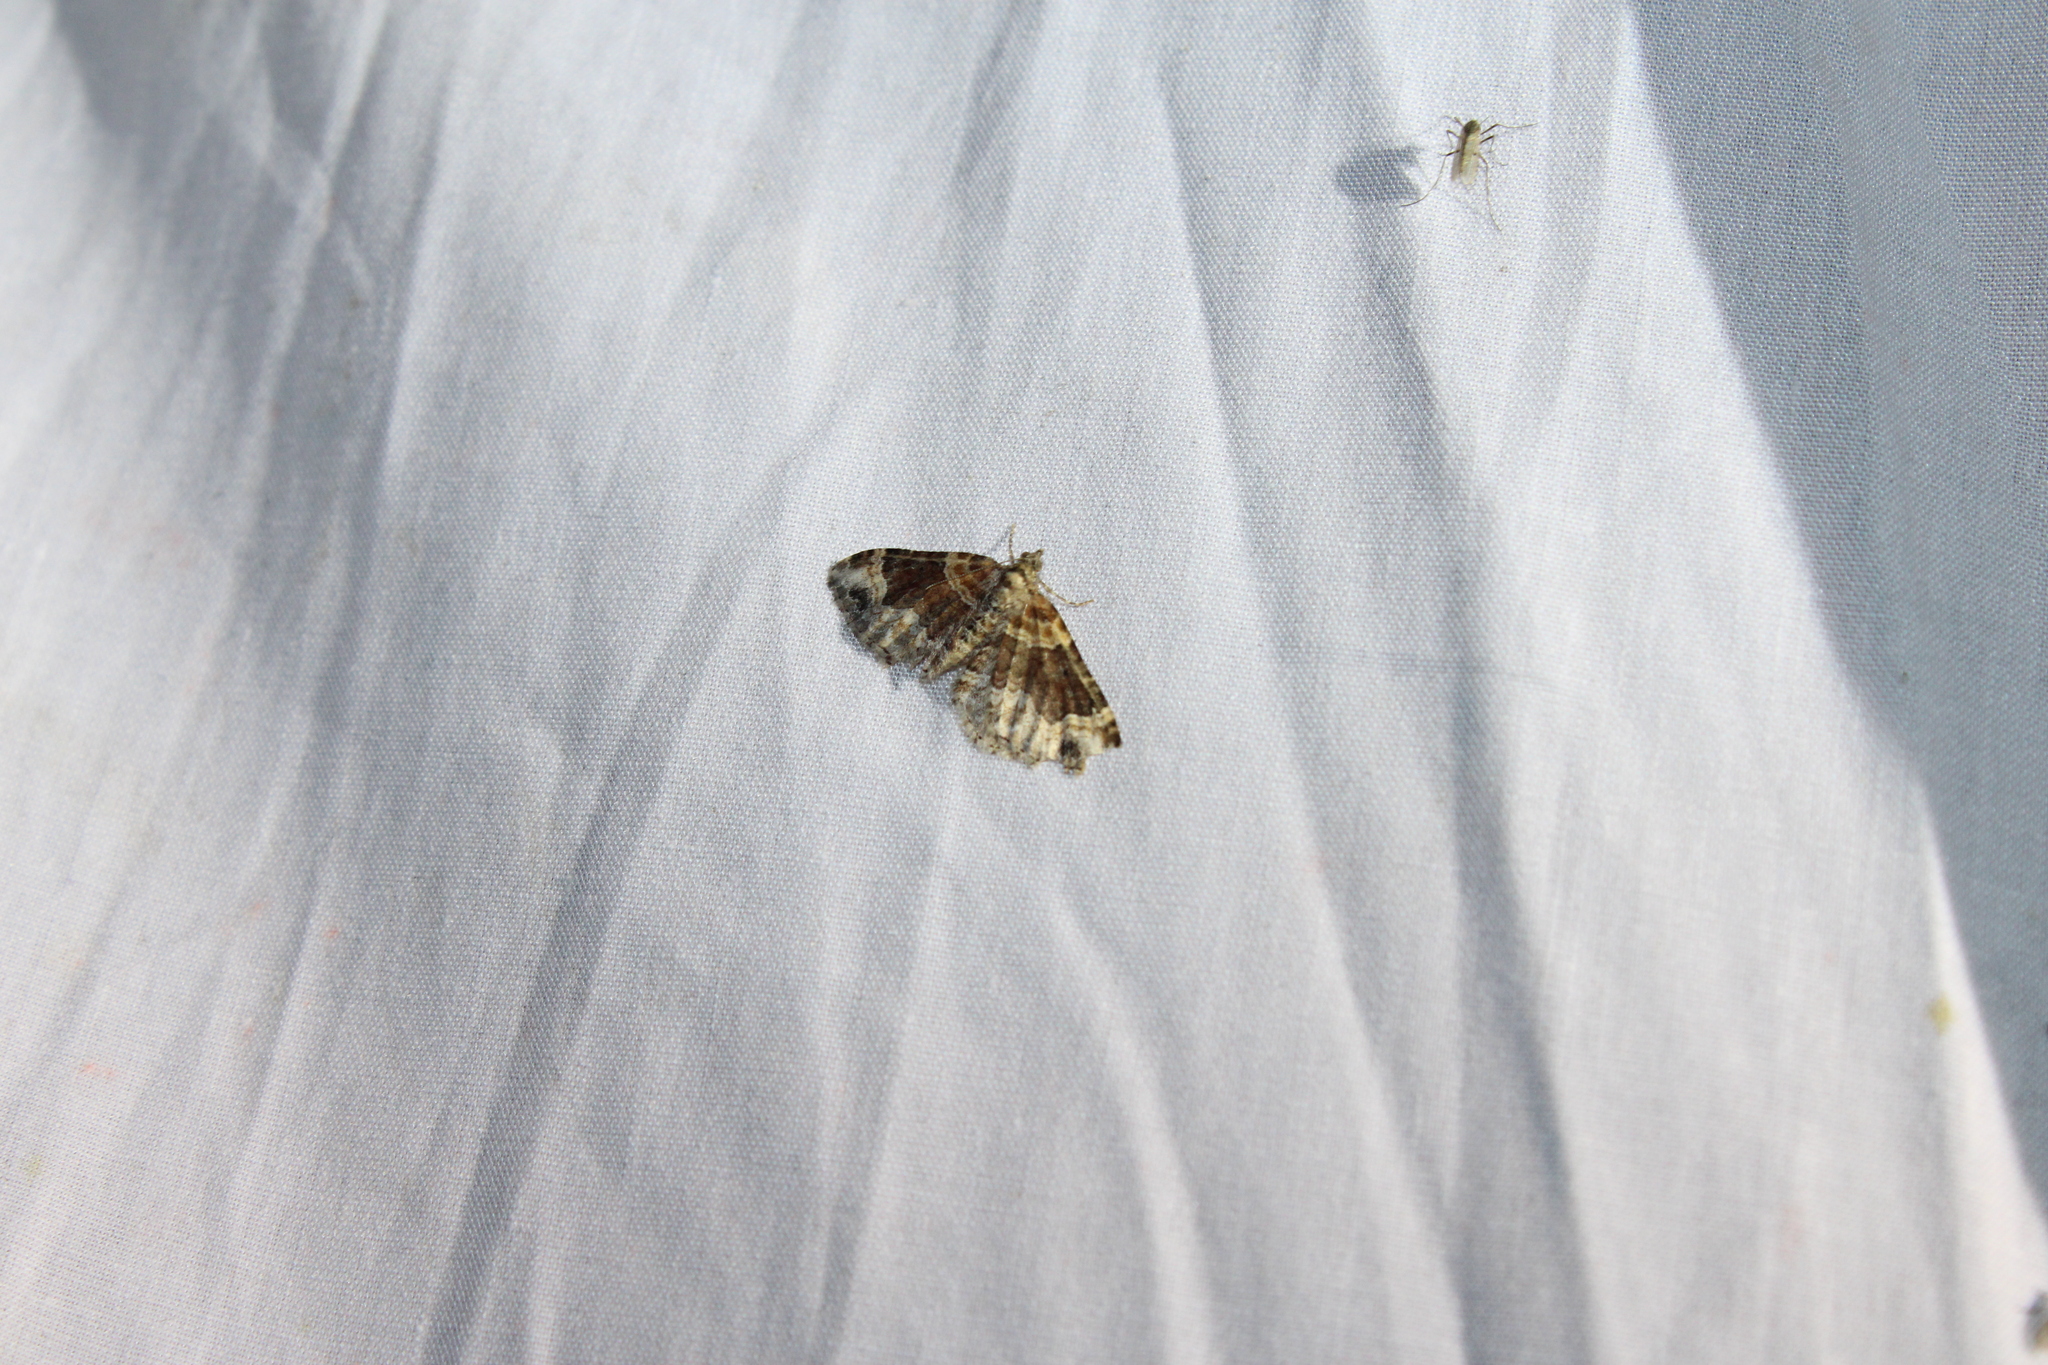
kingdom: Animalia
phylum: Arthropoda
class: Insecta
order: Lepidoptera
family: Geometridae
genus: Xanthorhoe
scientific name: Xanthorhoe ferrugata
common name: Dark-barred twin-spot carpet
